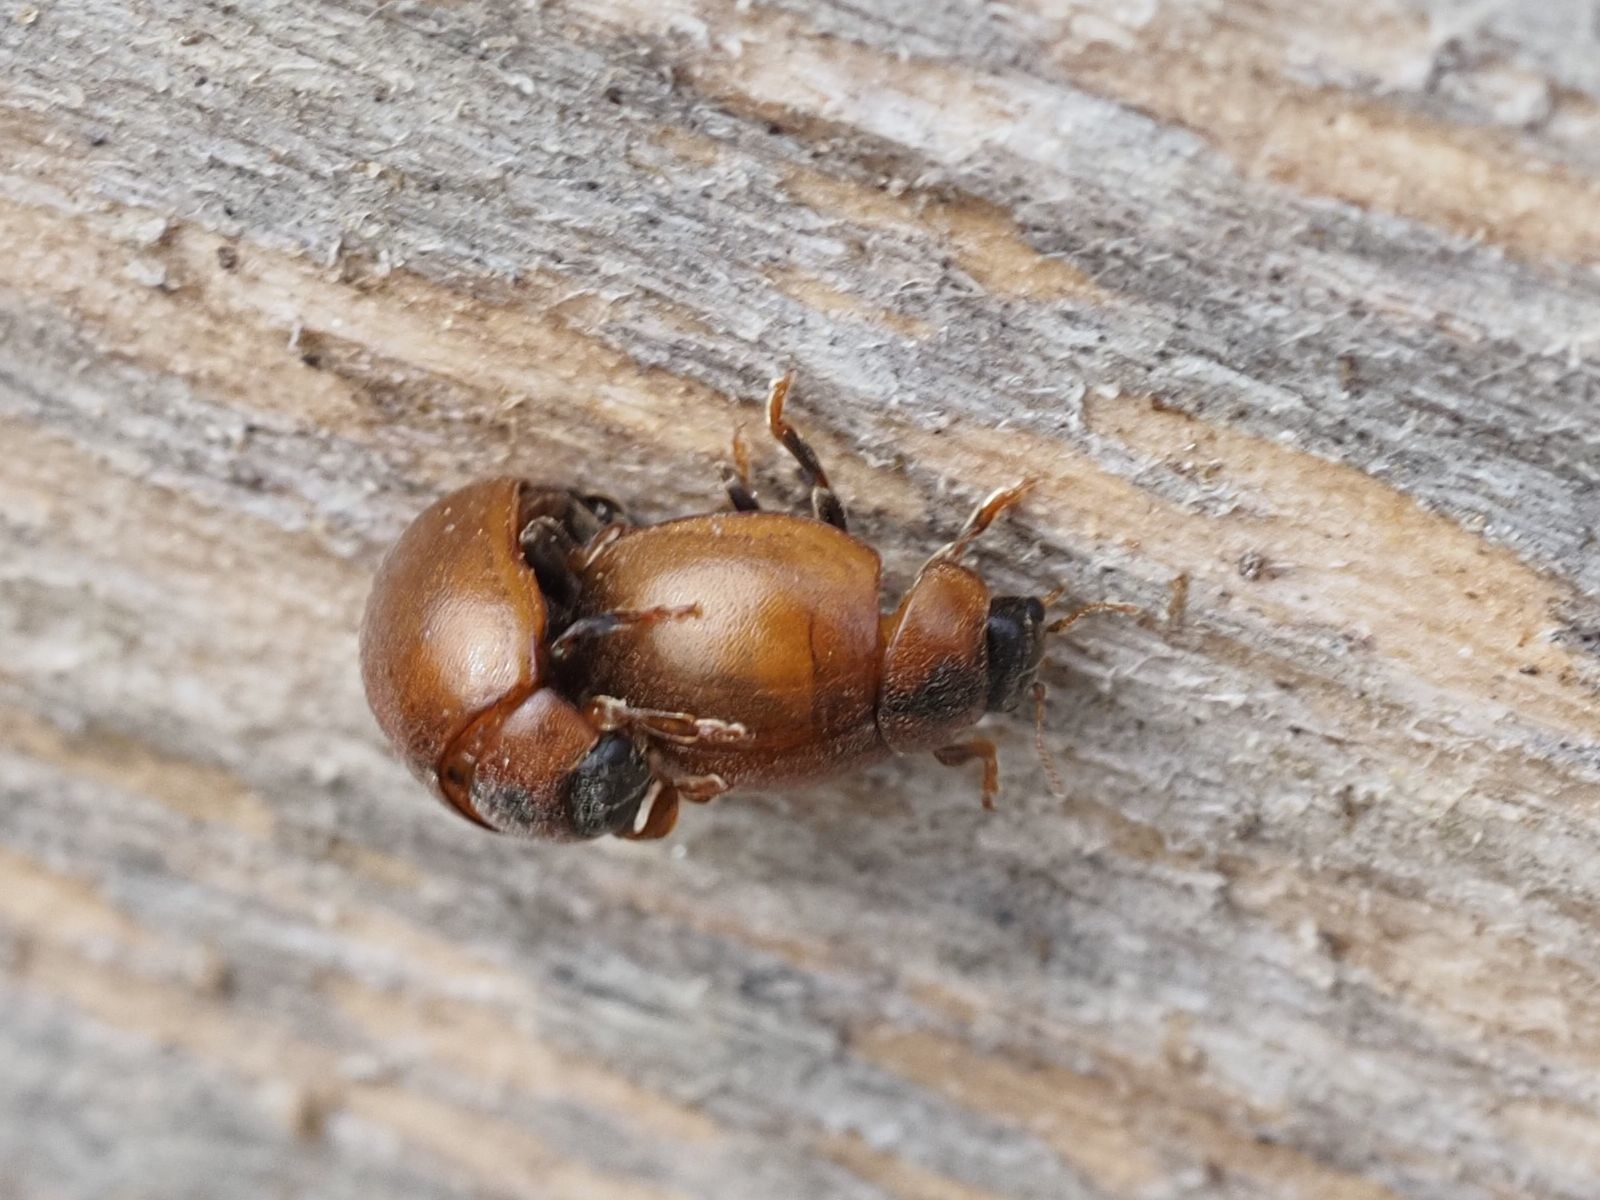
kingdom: Animalia
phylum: Arthropoda
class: Insecta
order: Coleoptera
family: Coccinellidae
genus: Cynegetis
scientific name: Cynegetis impunctata
